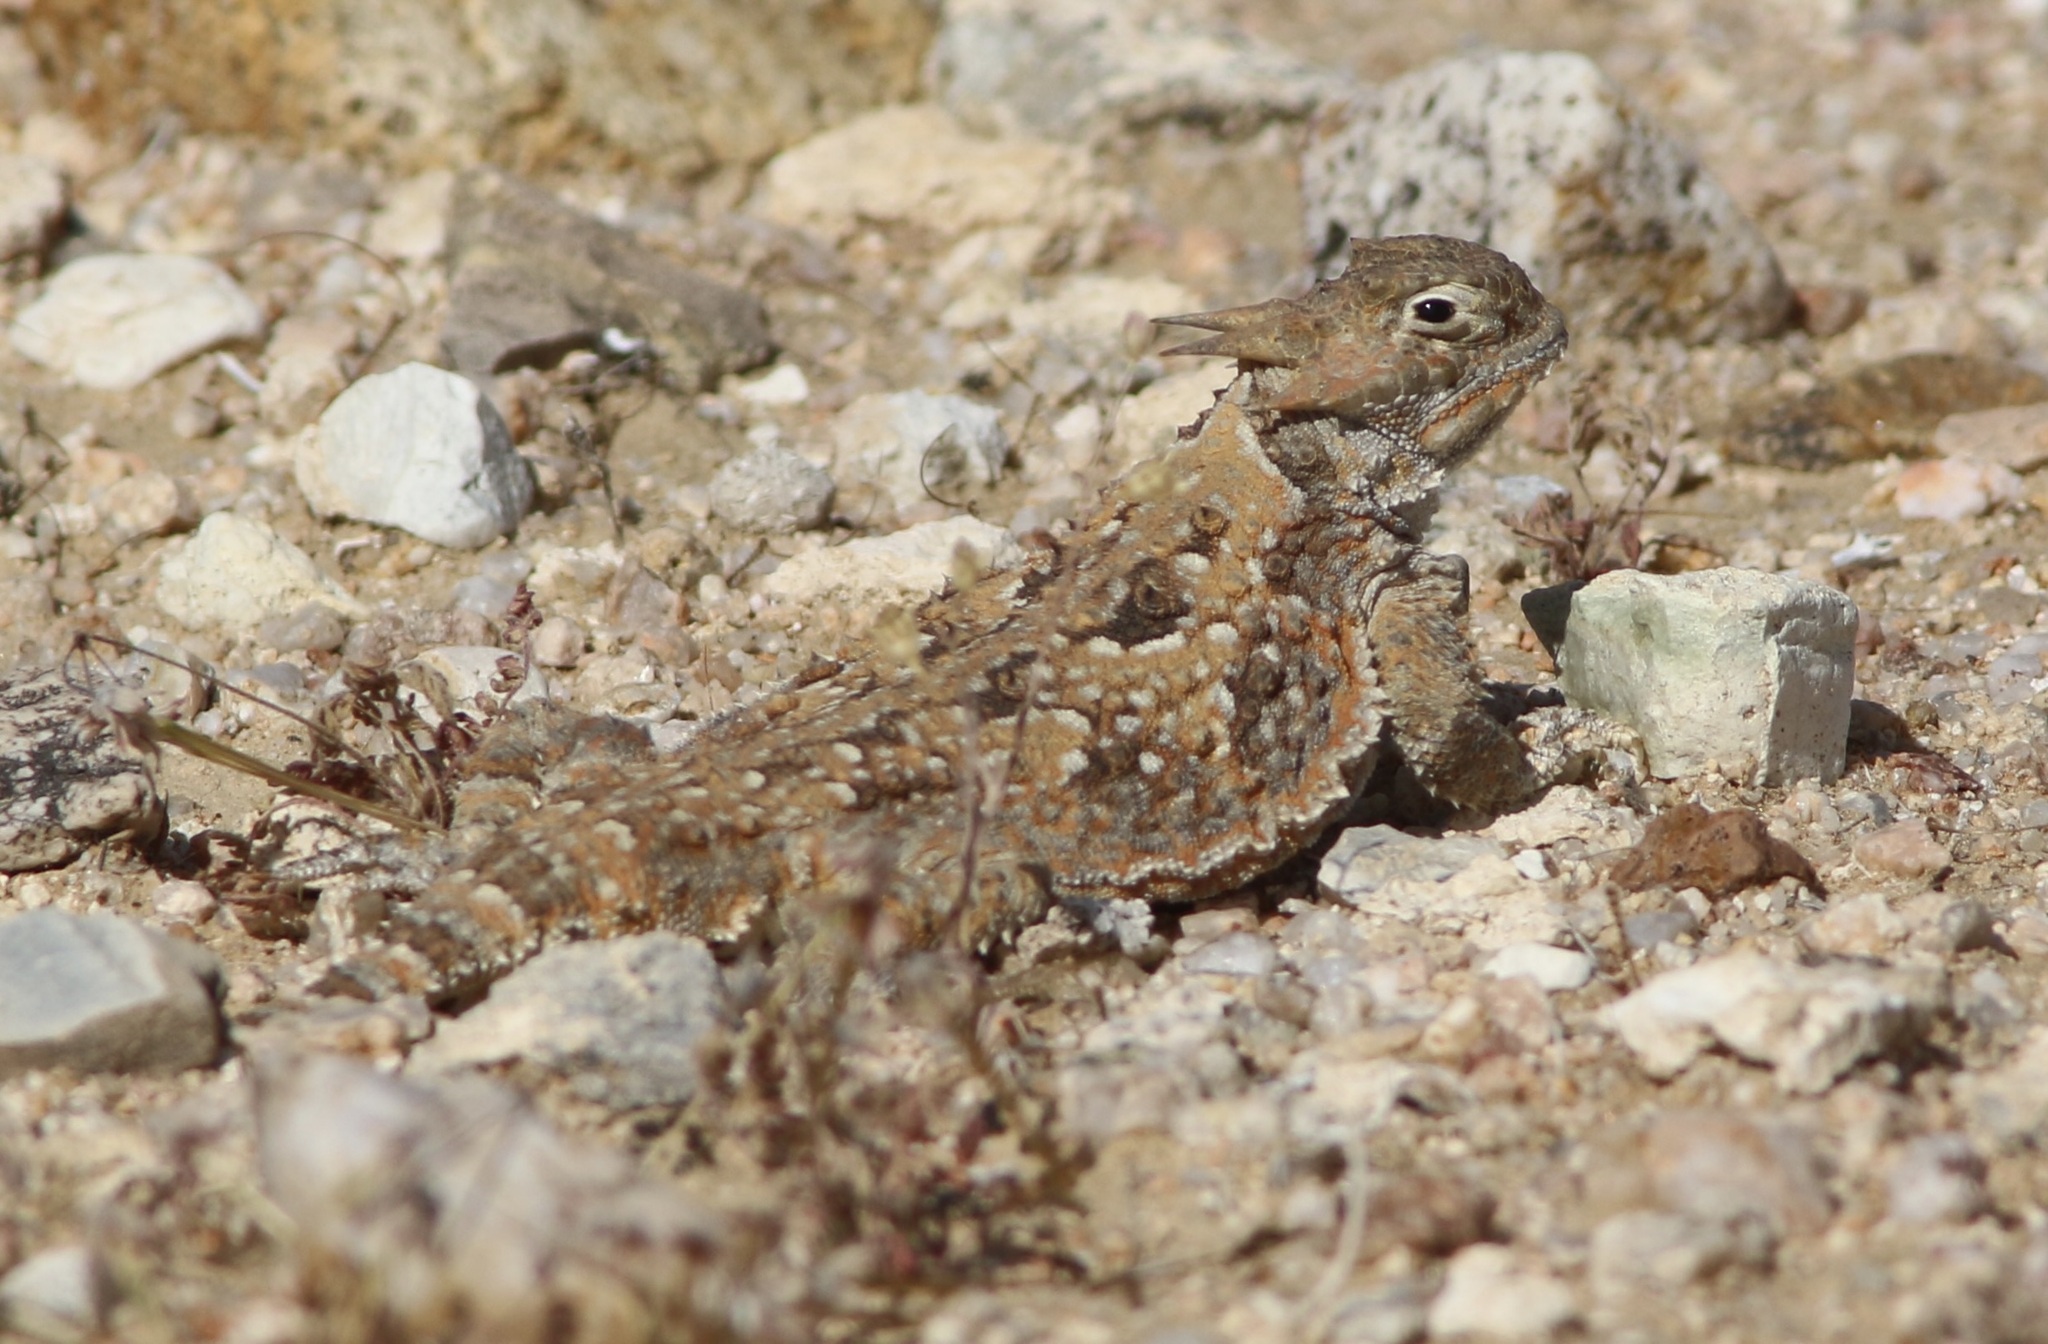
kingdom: Animalia
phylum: Chordata
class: Squamata
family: Phrynosomatidae
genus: Phrynosoma
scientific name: Phrynosoma platyrhinos
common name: Desert horned lizard
